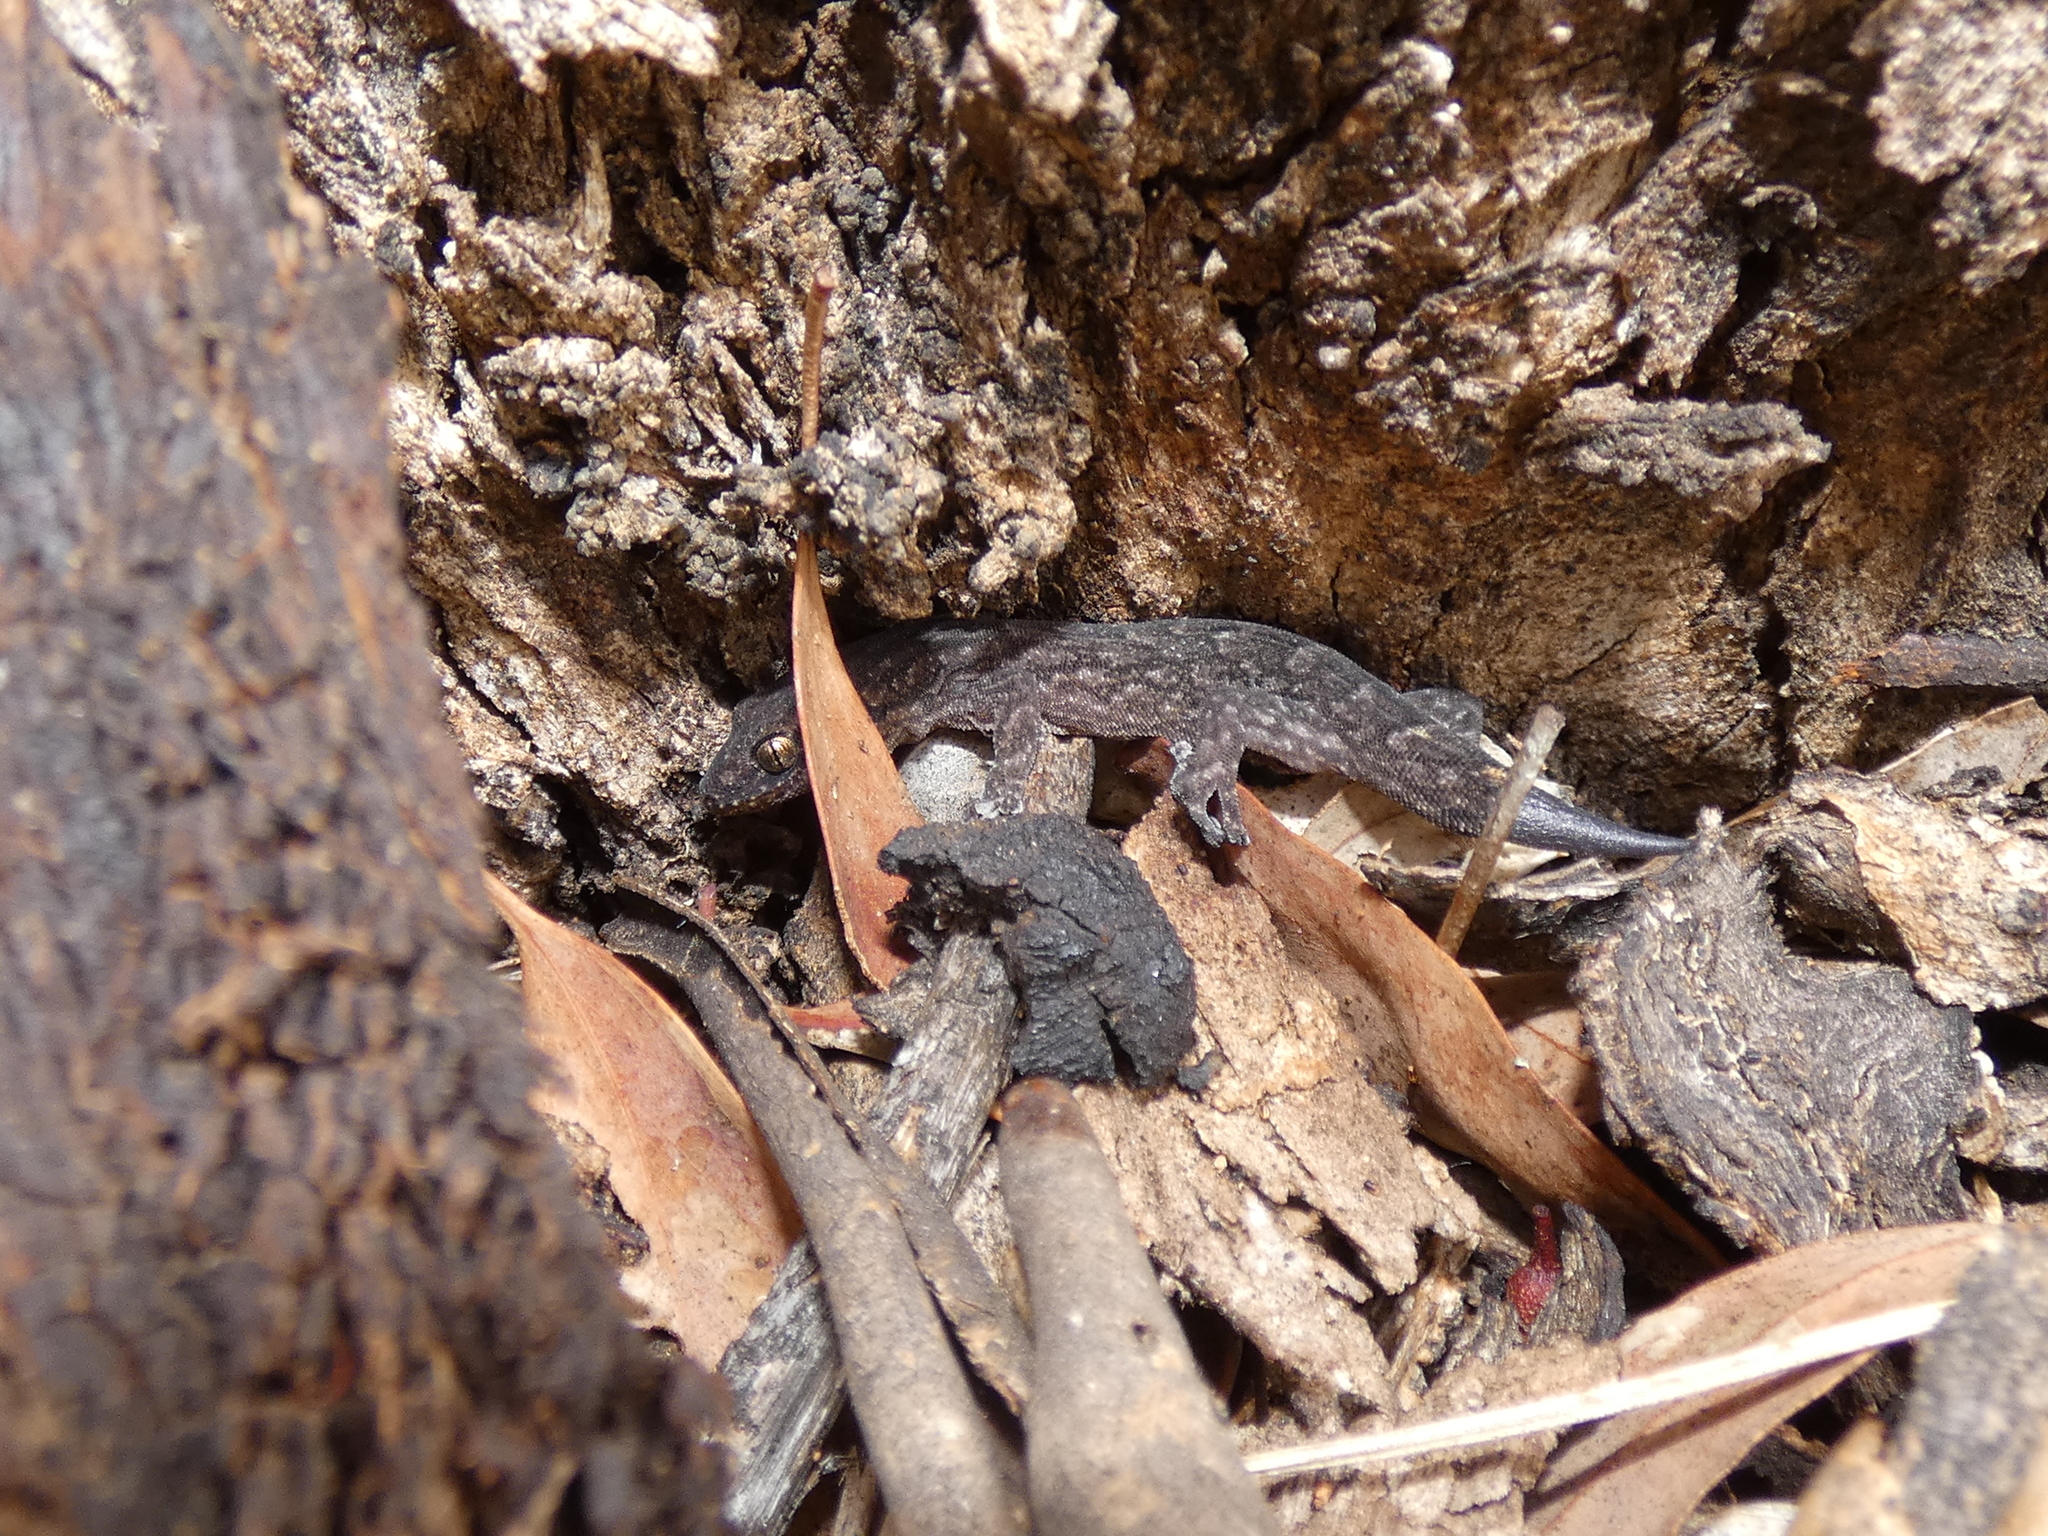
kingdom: Animalia
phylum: Chordata
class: Squamata
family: Gekkonidae
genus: Christinus
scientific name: Christinus marmoratus
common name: Marbled gecko
